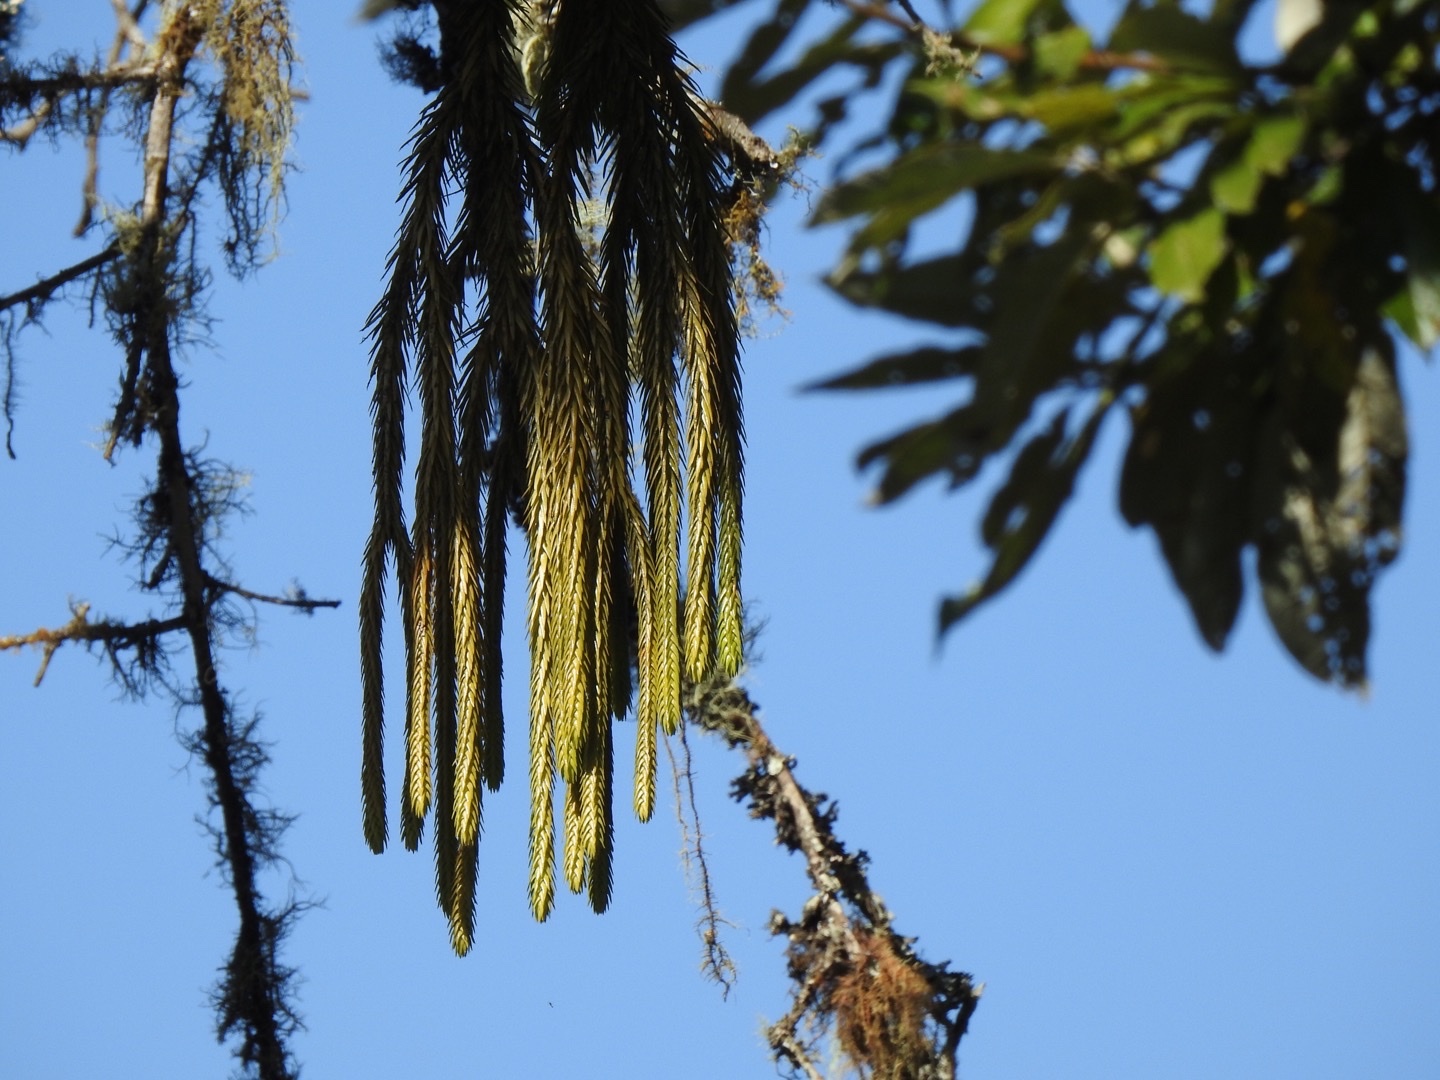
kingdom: Plantae
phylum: Tracheophyta
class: Lycopodiopsida
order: Lycopodiales
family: Lycopodiaceae
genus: Phlegmariurus
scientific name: Phlegmariurus dacrydioides
